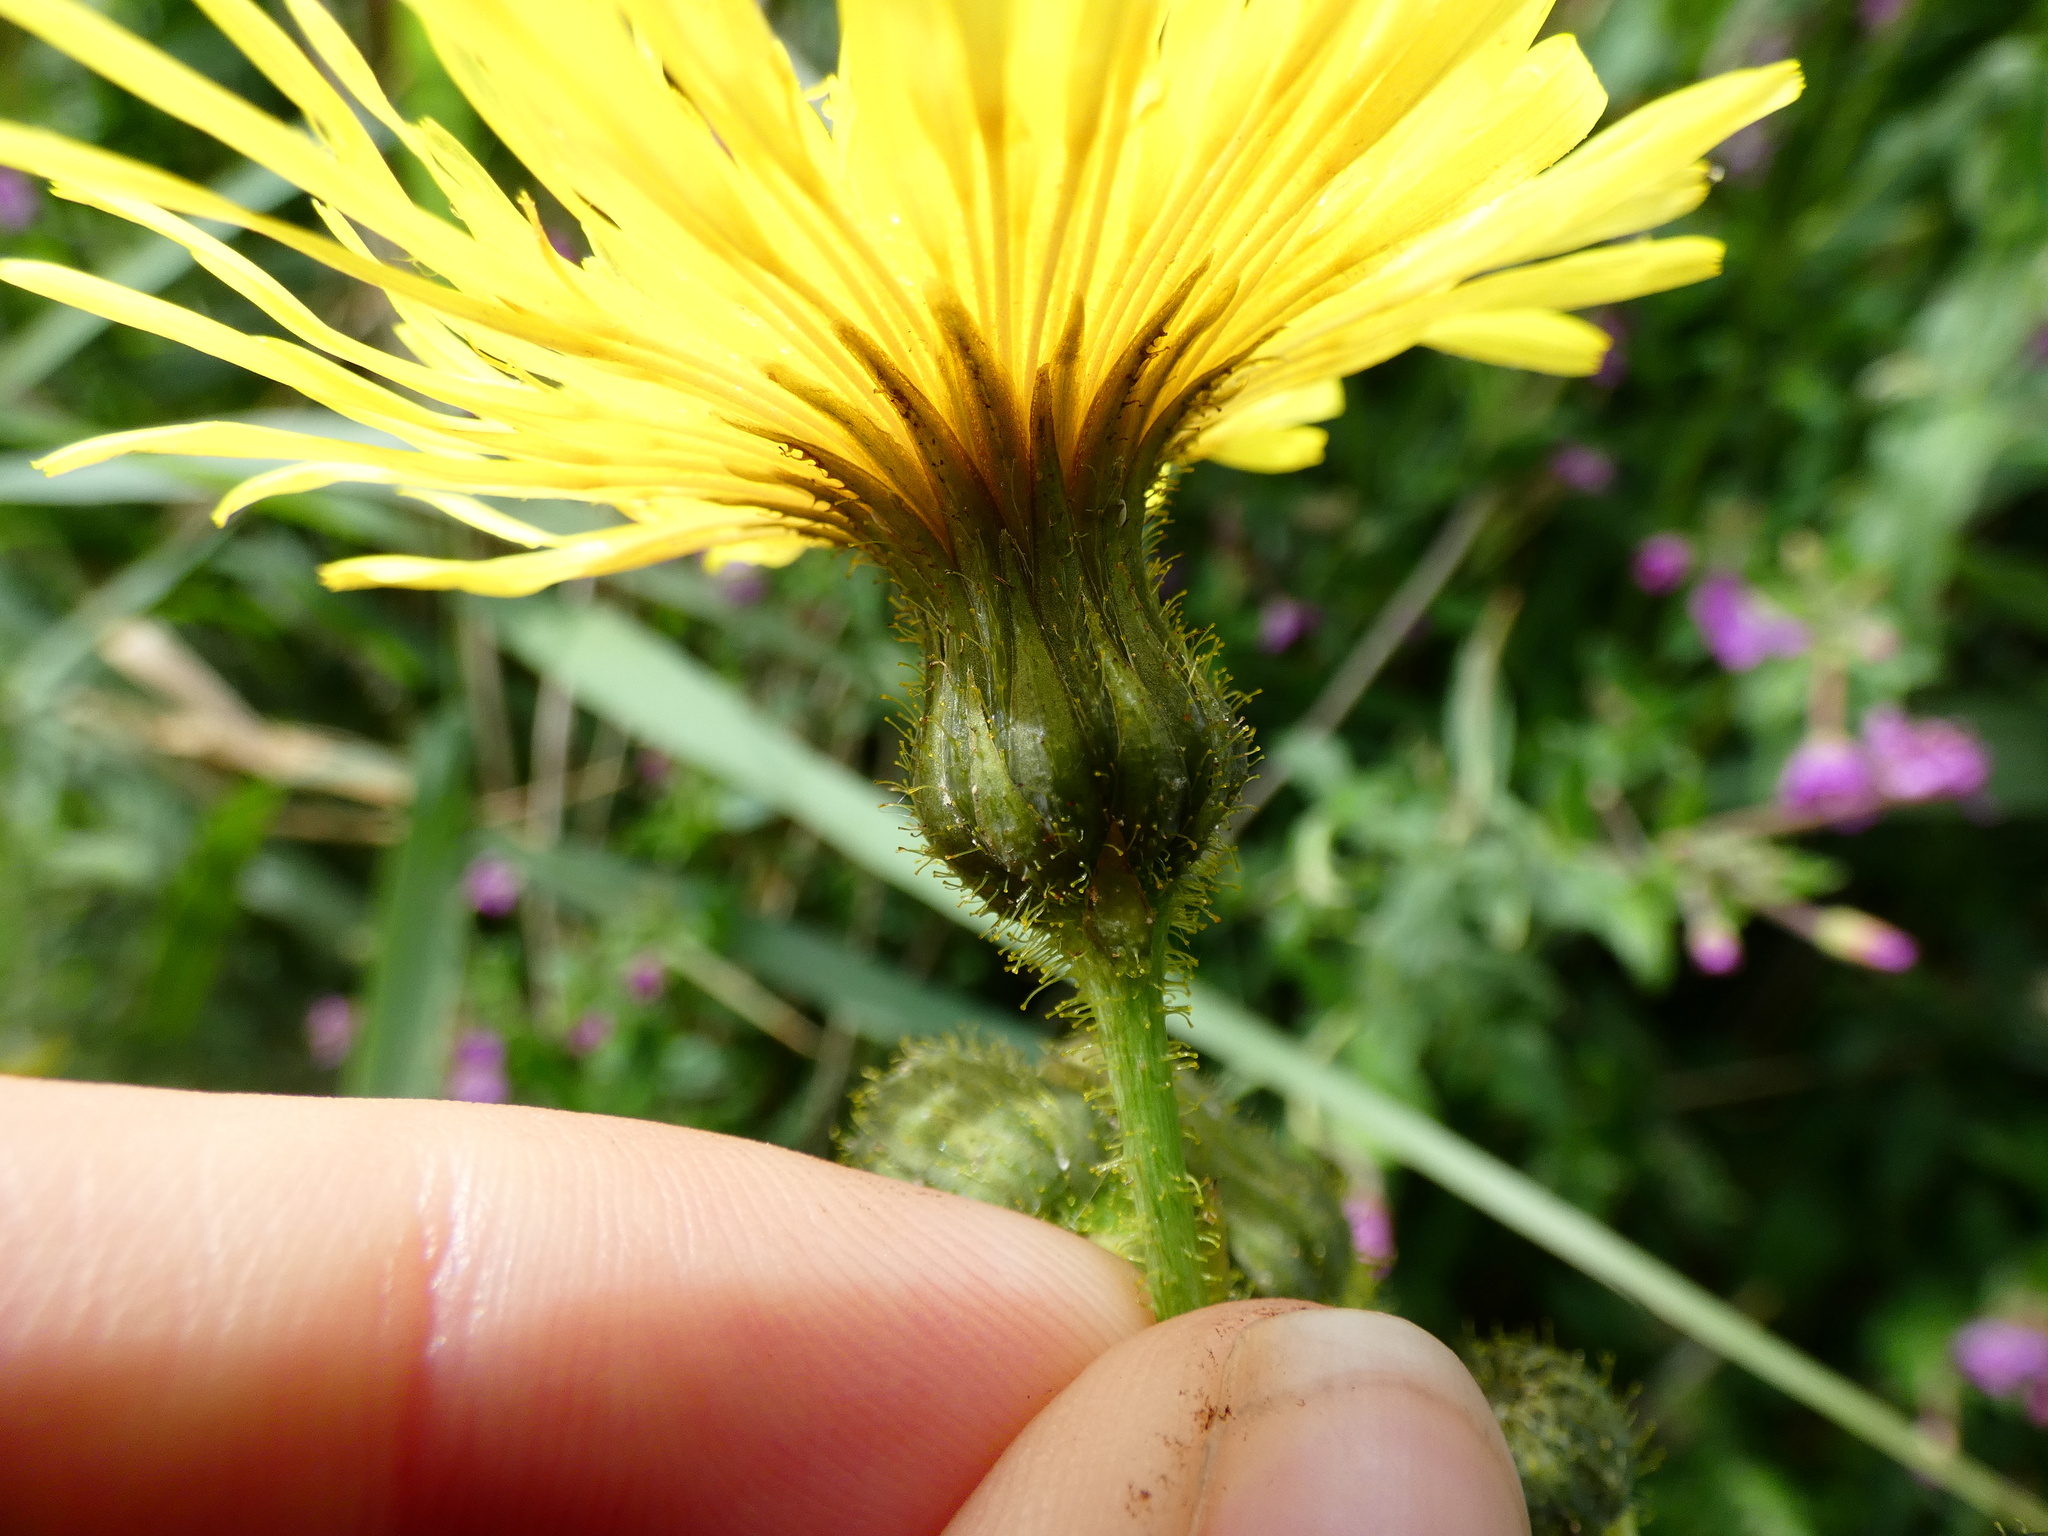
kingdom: Plantae
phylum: Tracheophyta
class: Magnoliopsida
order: Asterales
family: Asteraceae
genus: Sonchus
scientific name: Sonchus arvensis
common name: Perennial sow-thistle
